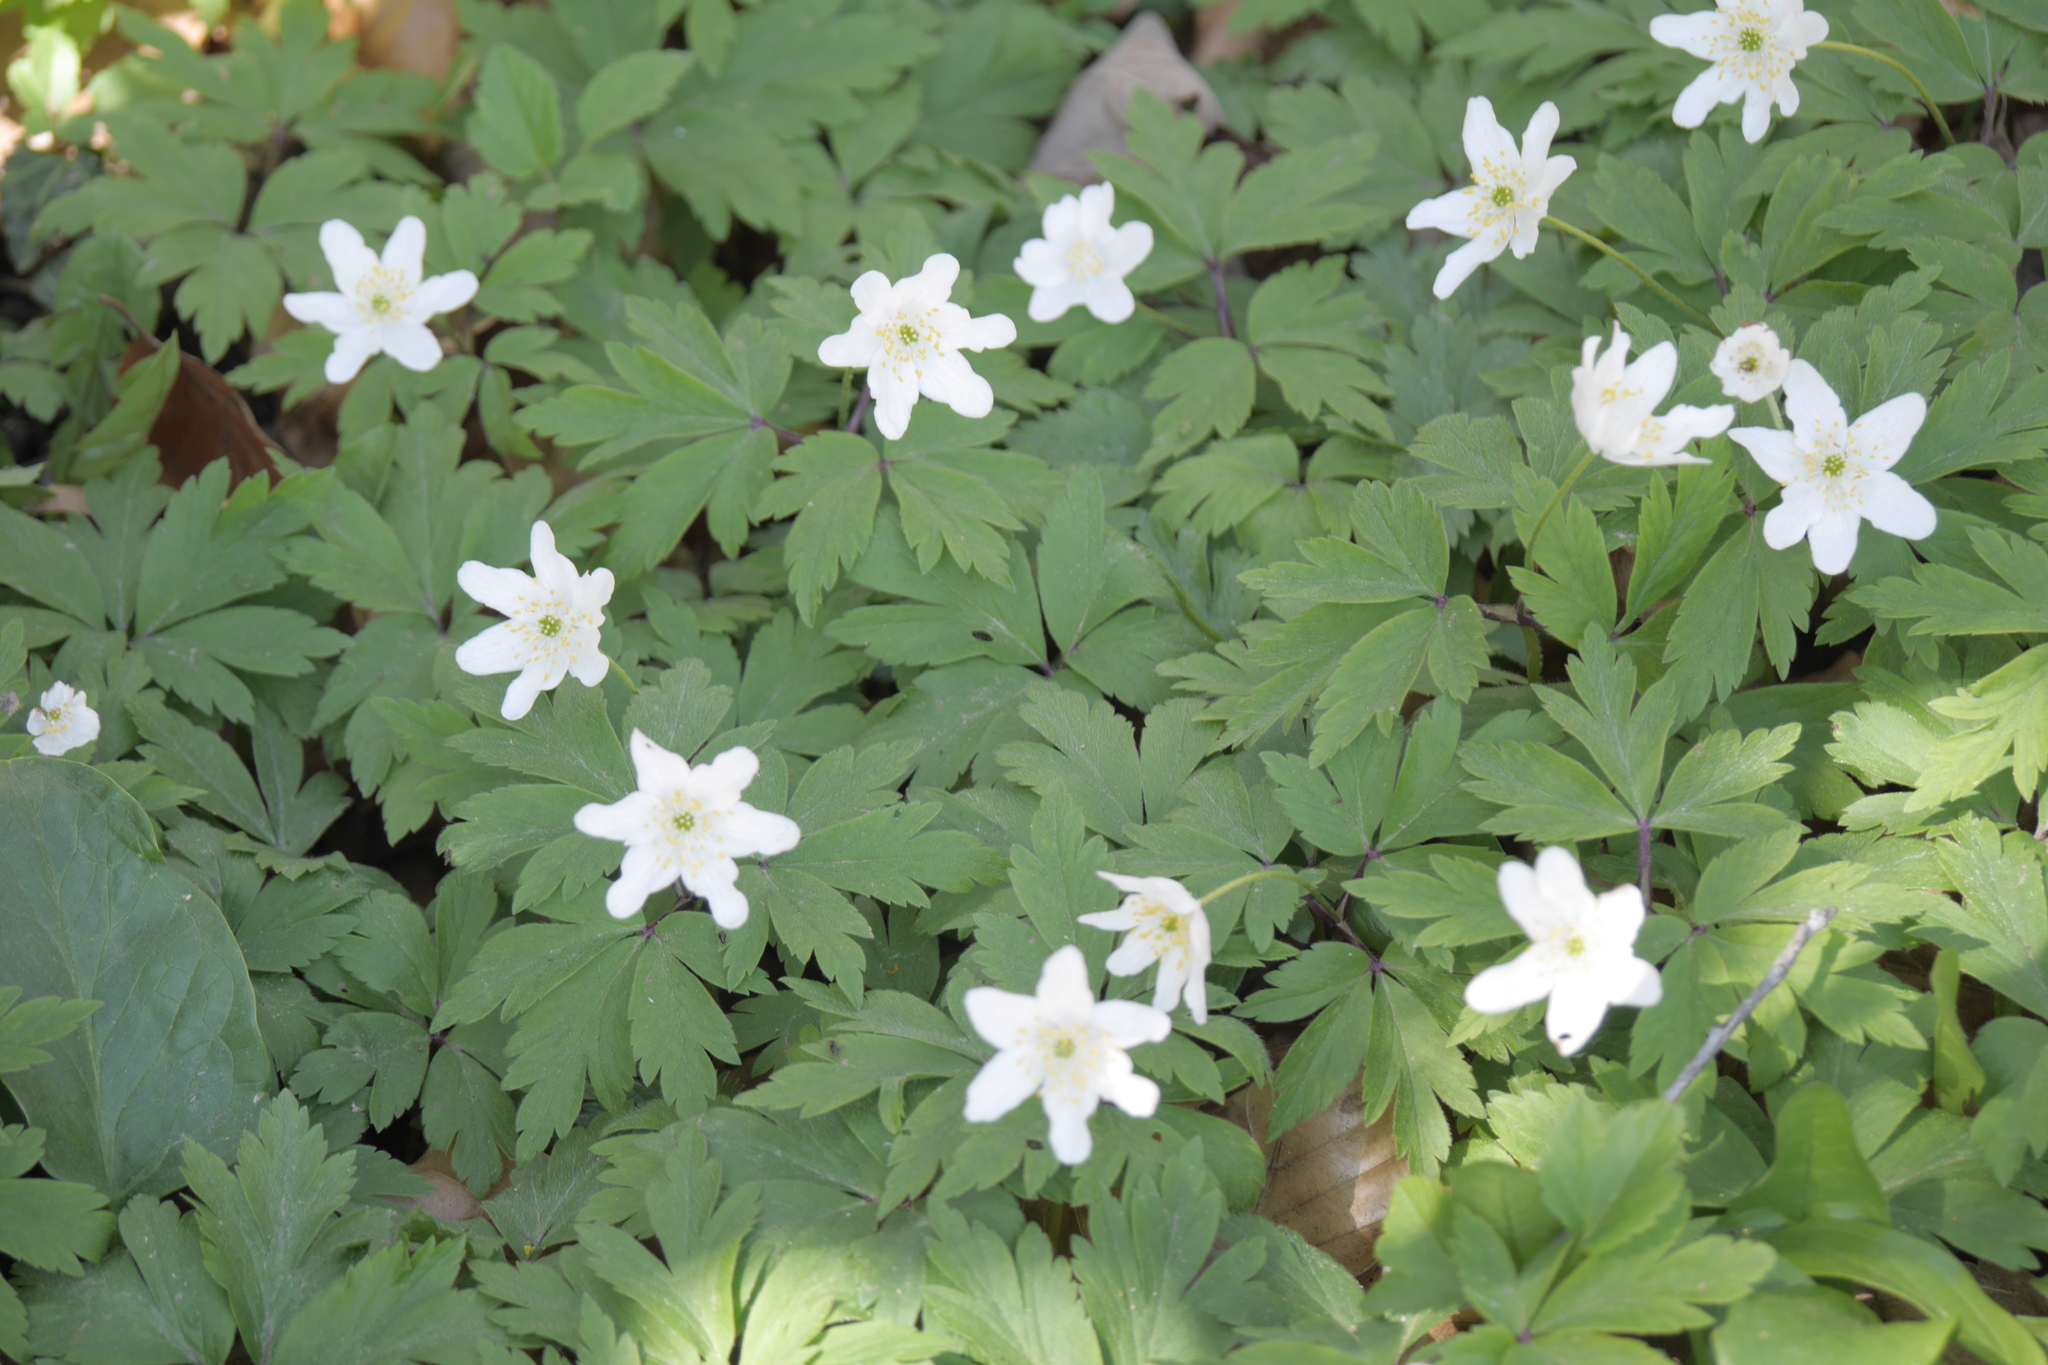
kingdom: Plantae
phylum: Tracheophyta
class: Magnoliopsida
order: Ranunculales
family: Ranunculaceae
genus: Anemone
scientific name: Anemone nemorosa
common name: Wood anemone
